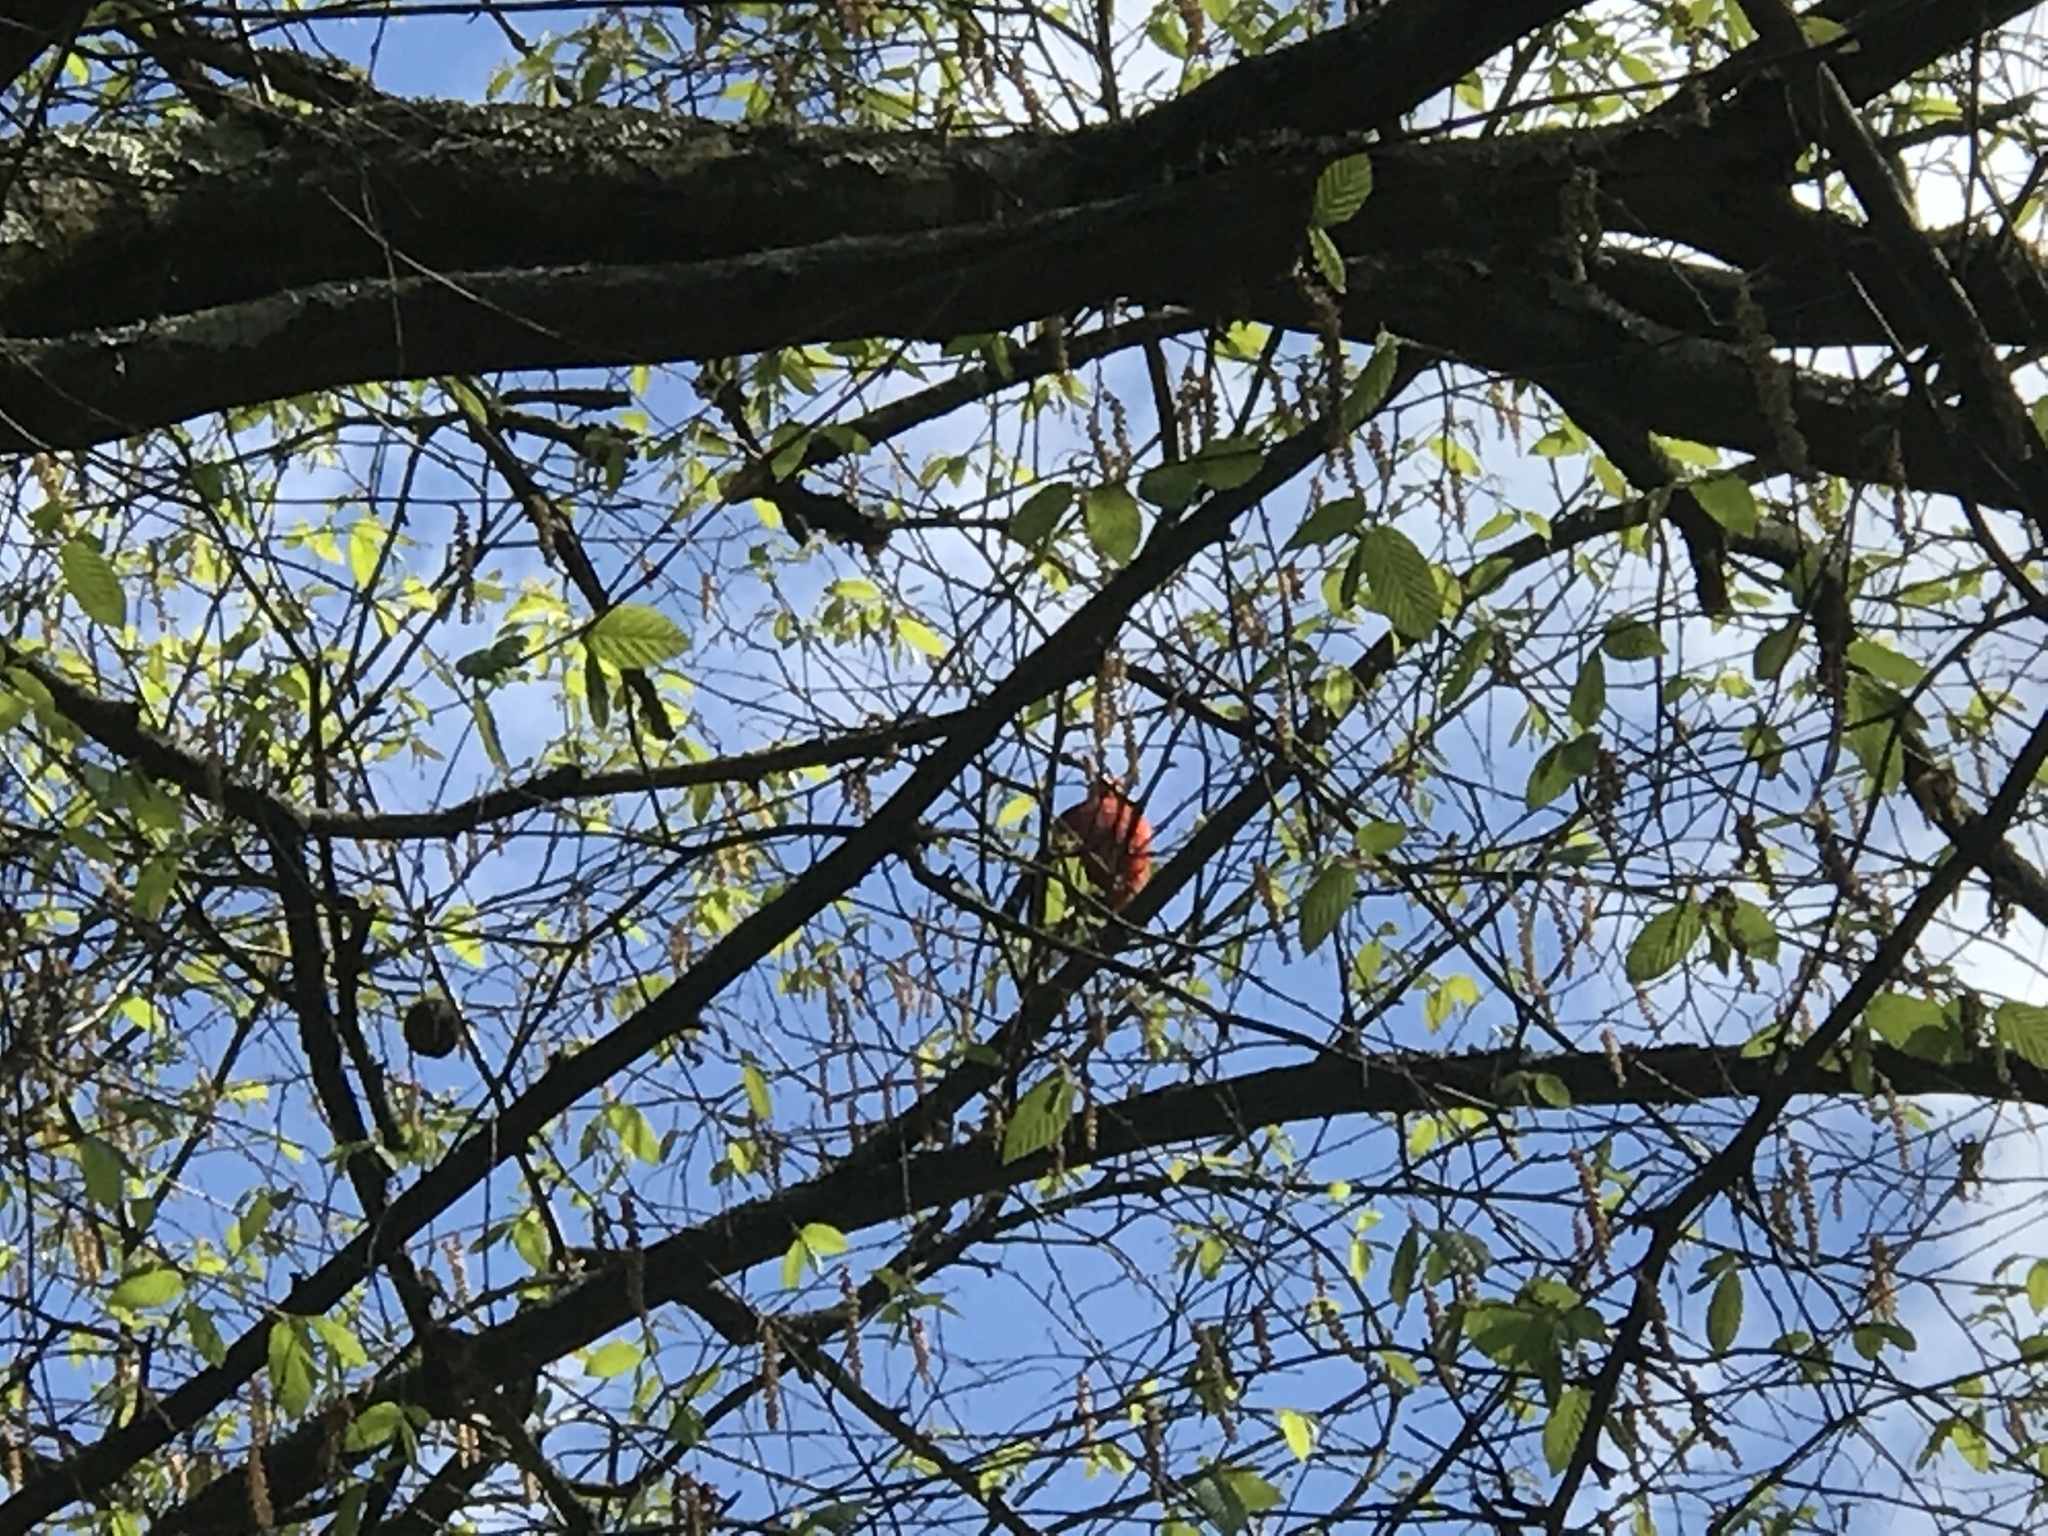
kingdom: Animalia
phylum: Chordata
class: Aves
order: Passeriformes
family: Cardinalidae
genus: Cardinalis
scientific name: Cardinalis cardinalis
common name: Northern cardinal
